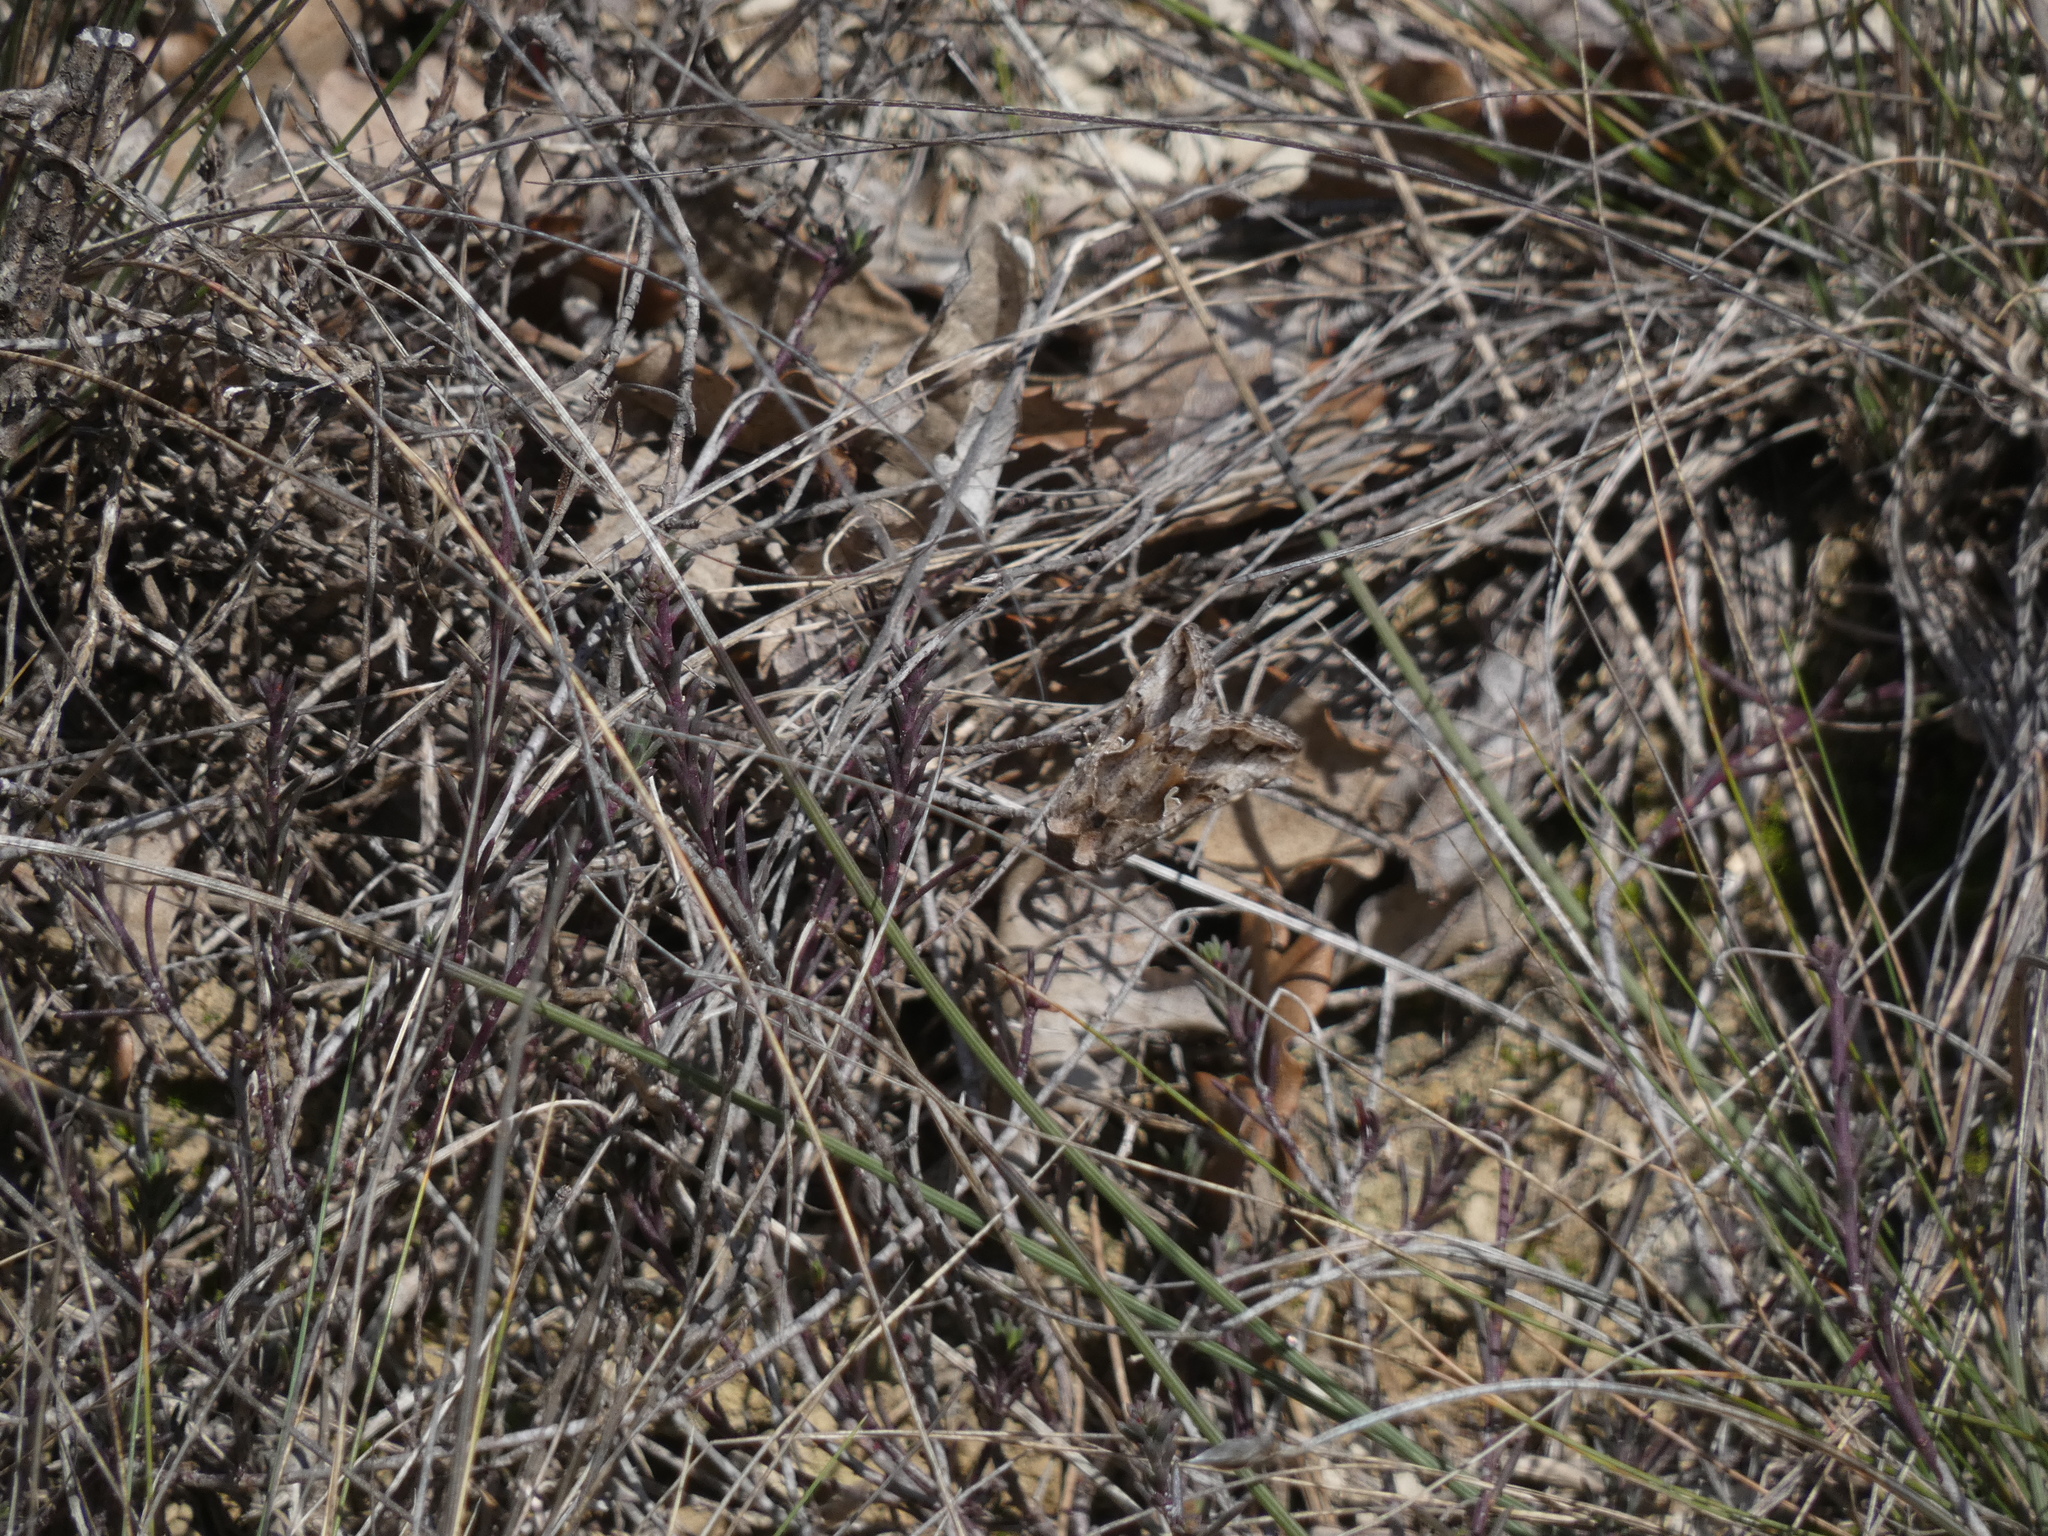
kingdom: Animalia
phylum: Arthropoda
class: Insecta
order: Lepidoptera
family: Noctuidae
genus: Autographa
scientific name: Autographa gamma
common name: Silver y
